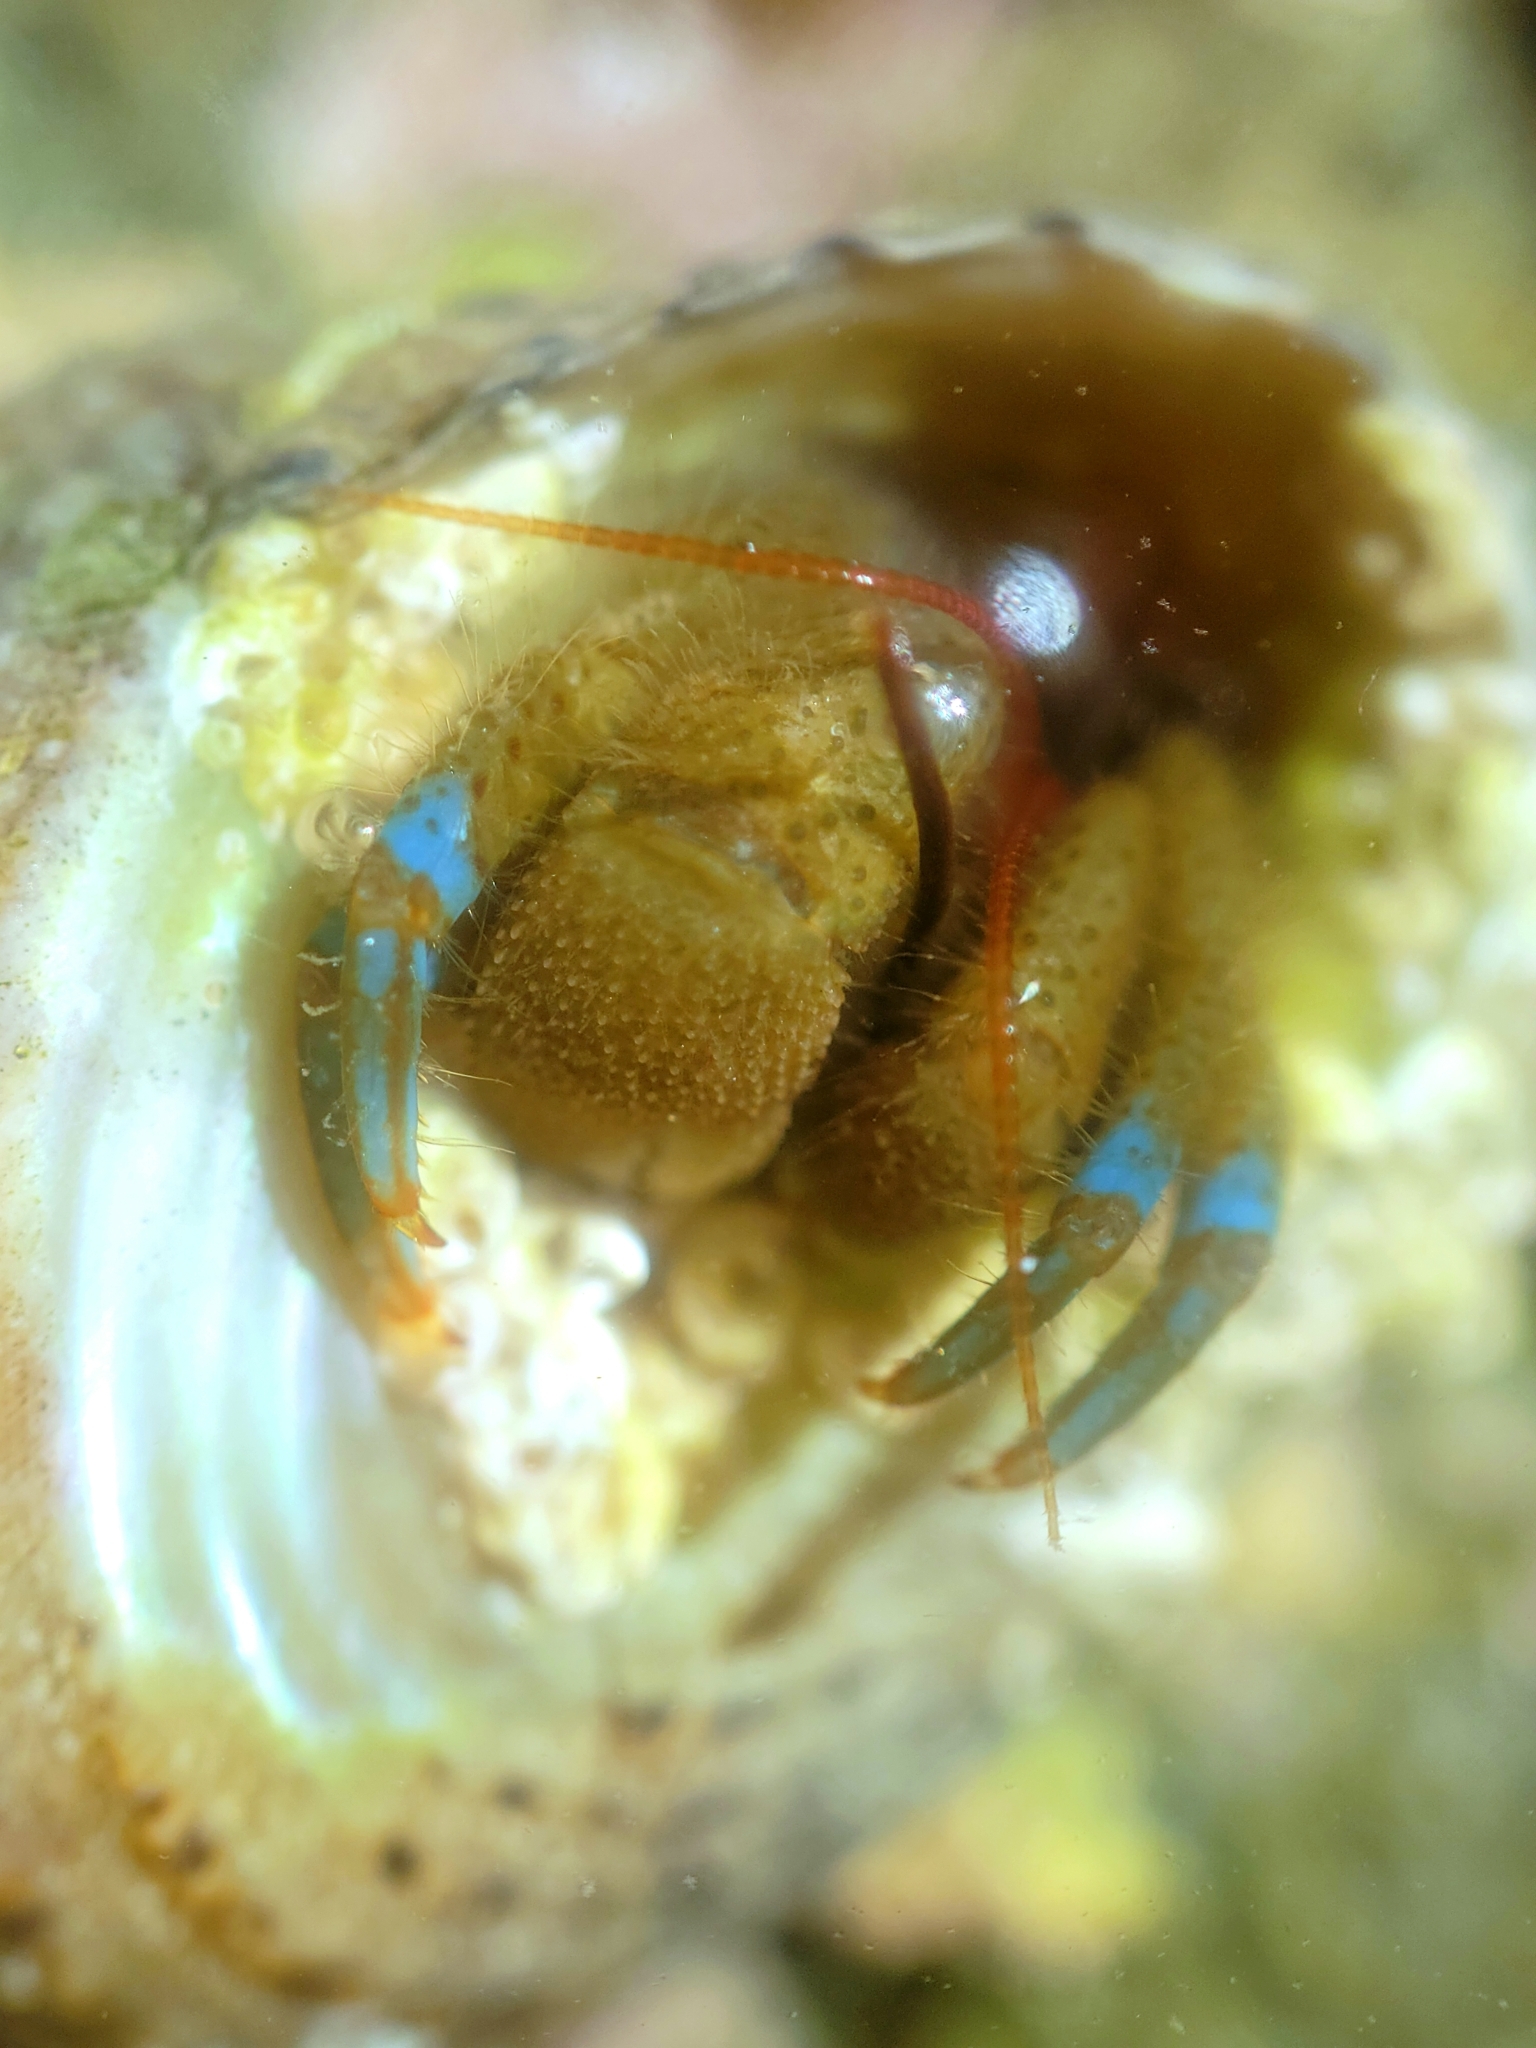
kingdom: Animalia
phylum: Arthropoda
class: Malacostraca
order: Decapoda
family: Paguridae
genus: Pagurus
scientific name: Pagurus samuelis
